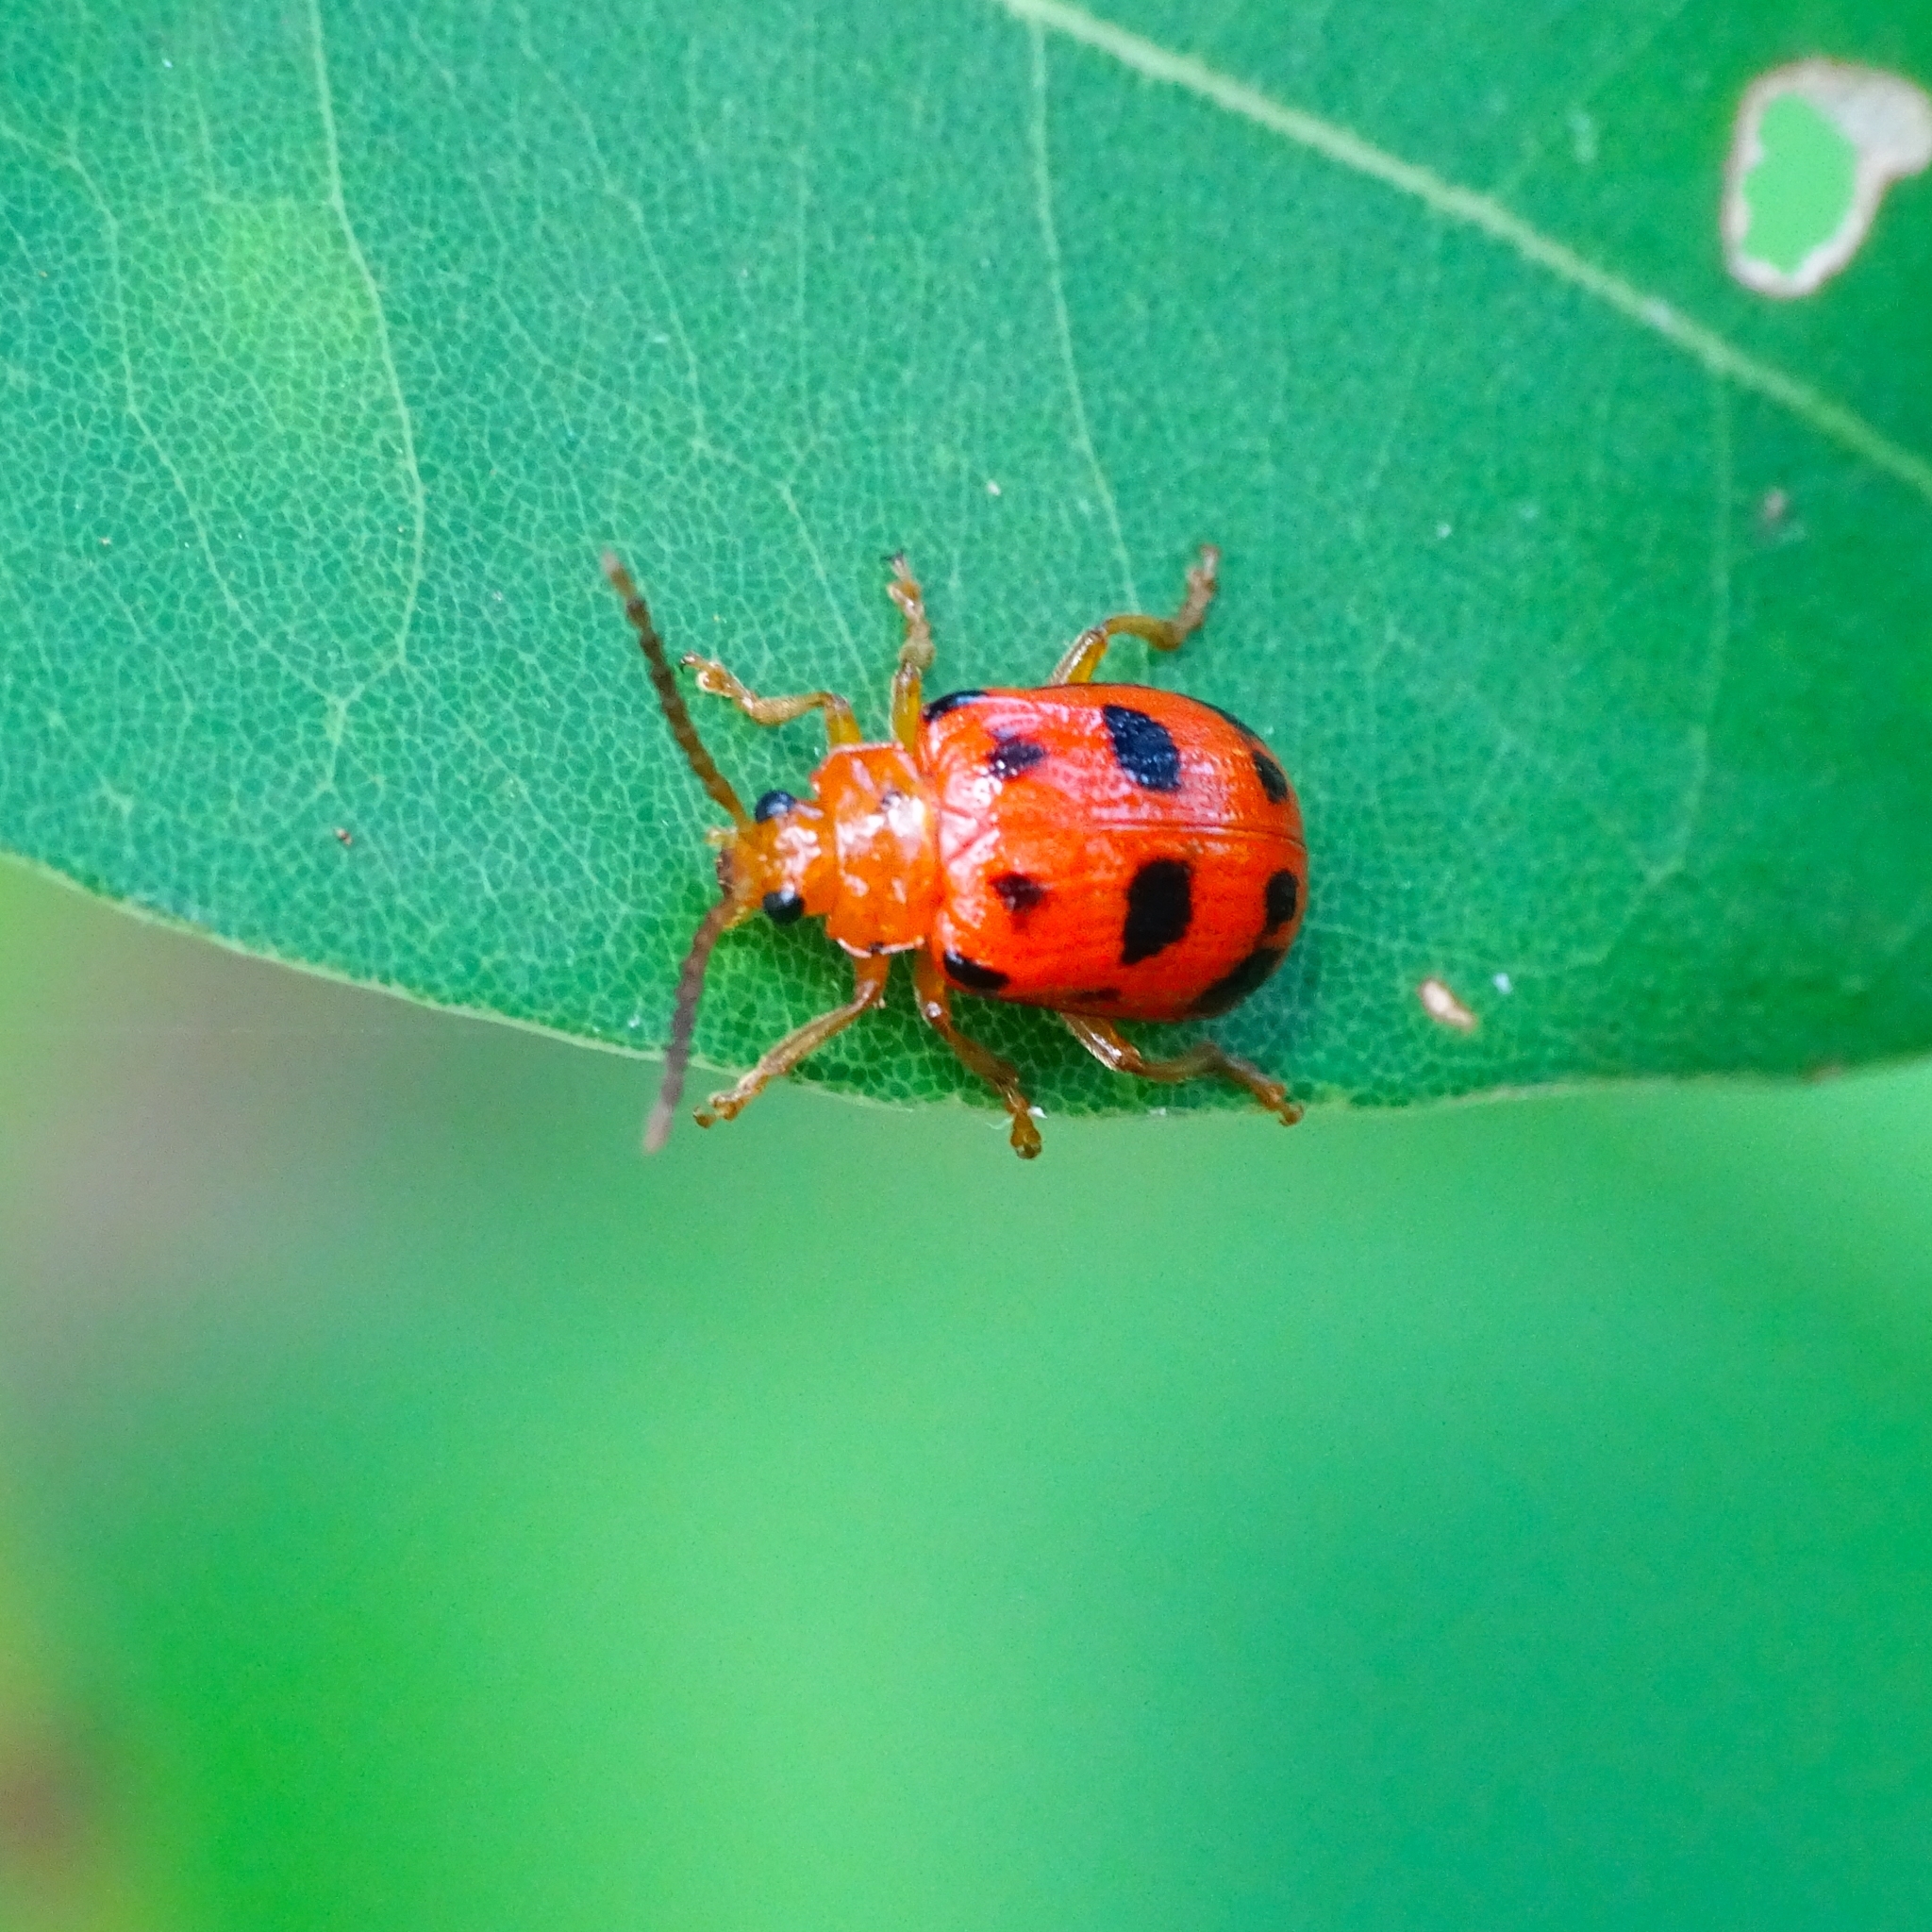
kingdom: Animalia
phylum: Arthropoda
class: Insecta
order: Coleoptera
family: Chrysomelidae
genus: Sphenoraia
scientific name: Sphenoraia
